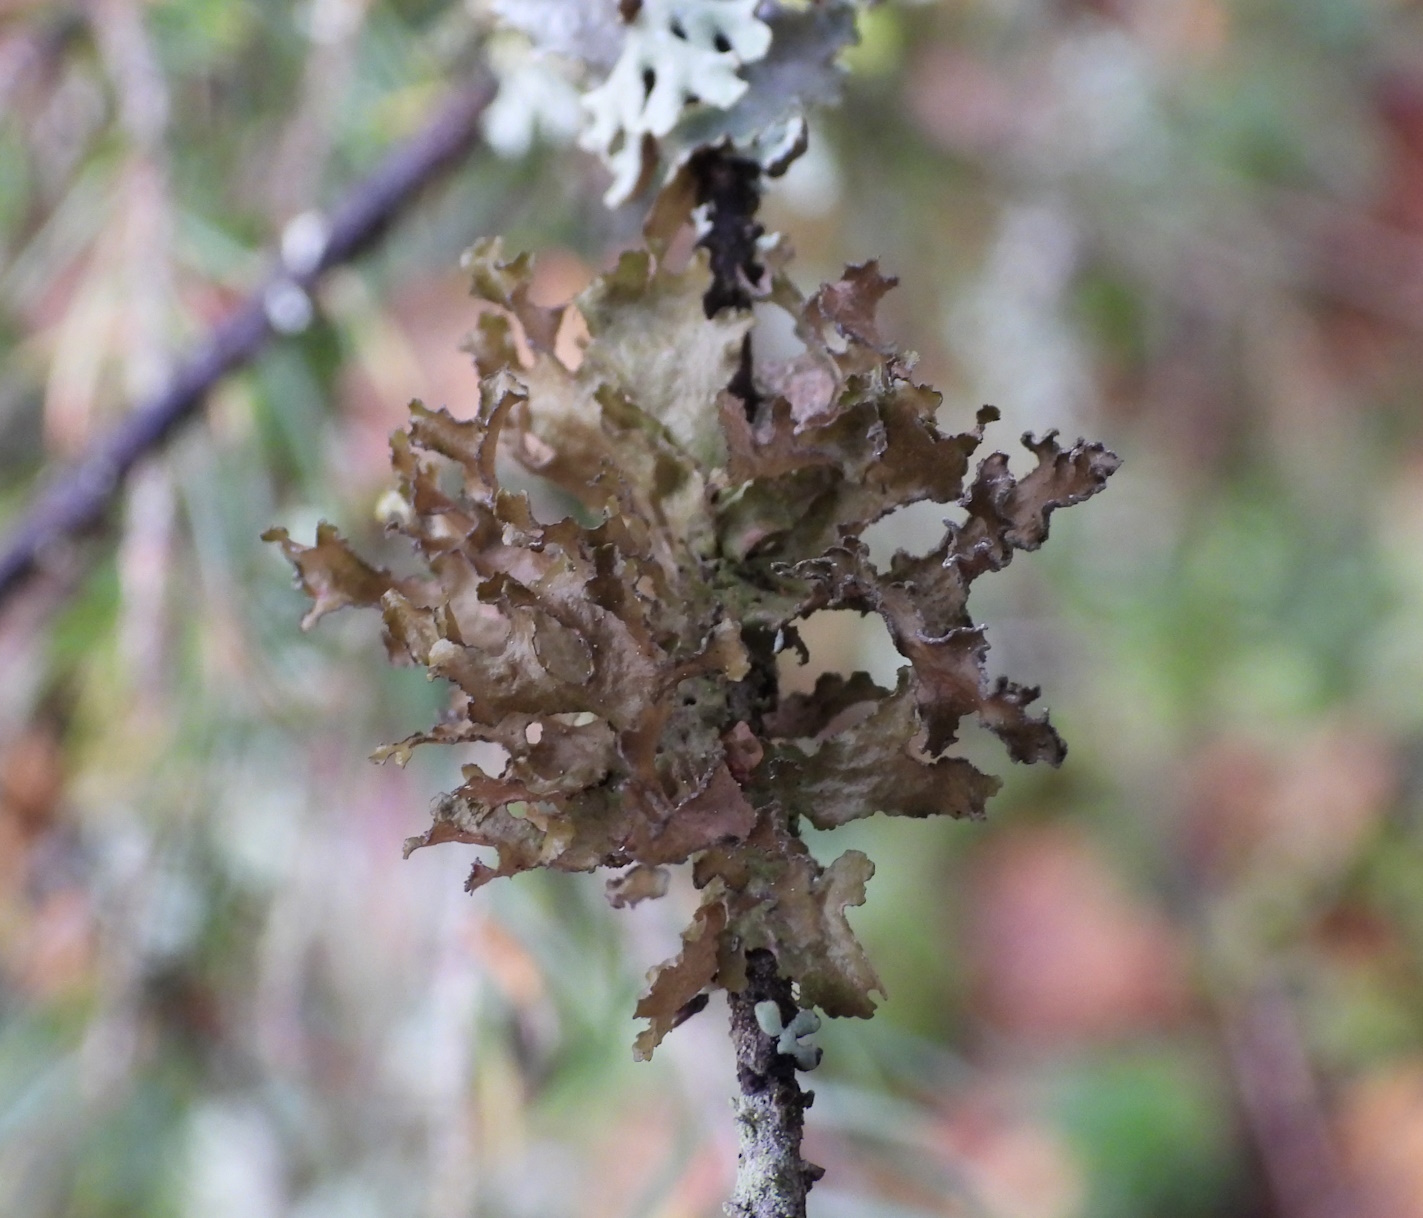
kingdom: Fungi
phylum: Ascomycota
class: Lecanoromycetes
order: Lecanorales
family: Parmeliaceae
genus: Nephromopsis
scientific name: Nephromopsis chlorophylla
